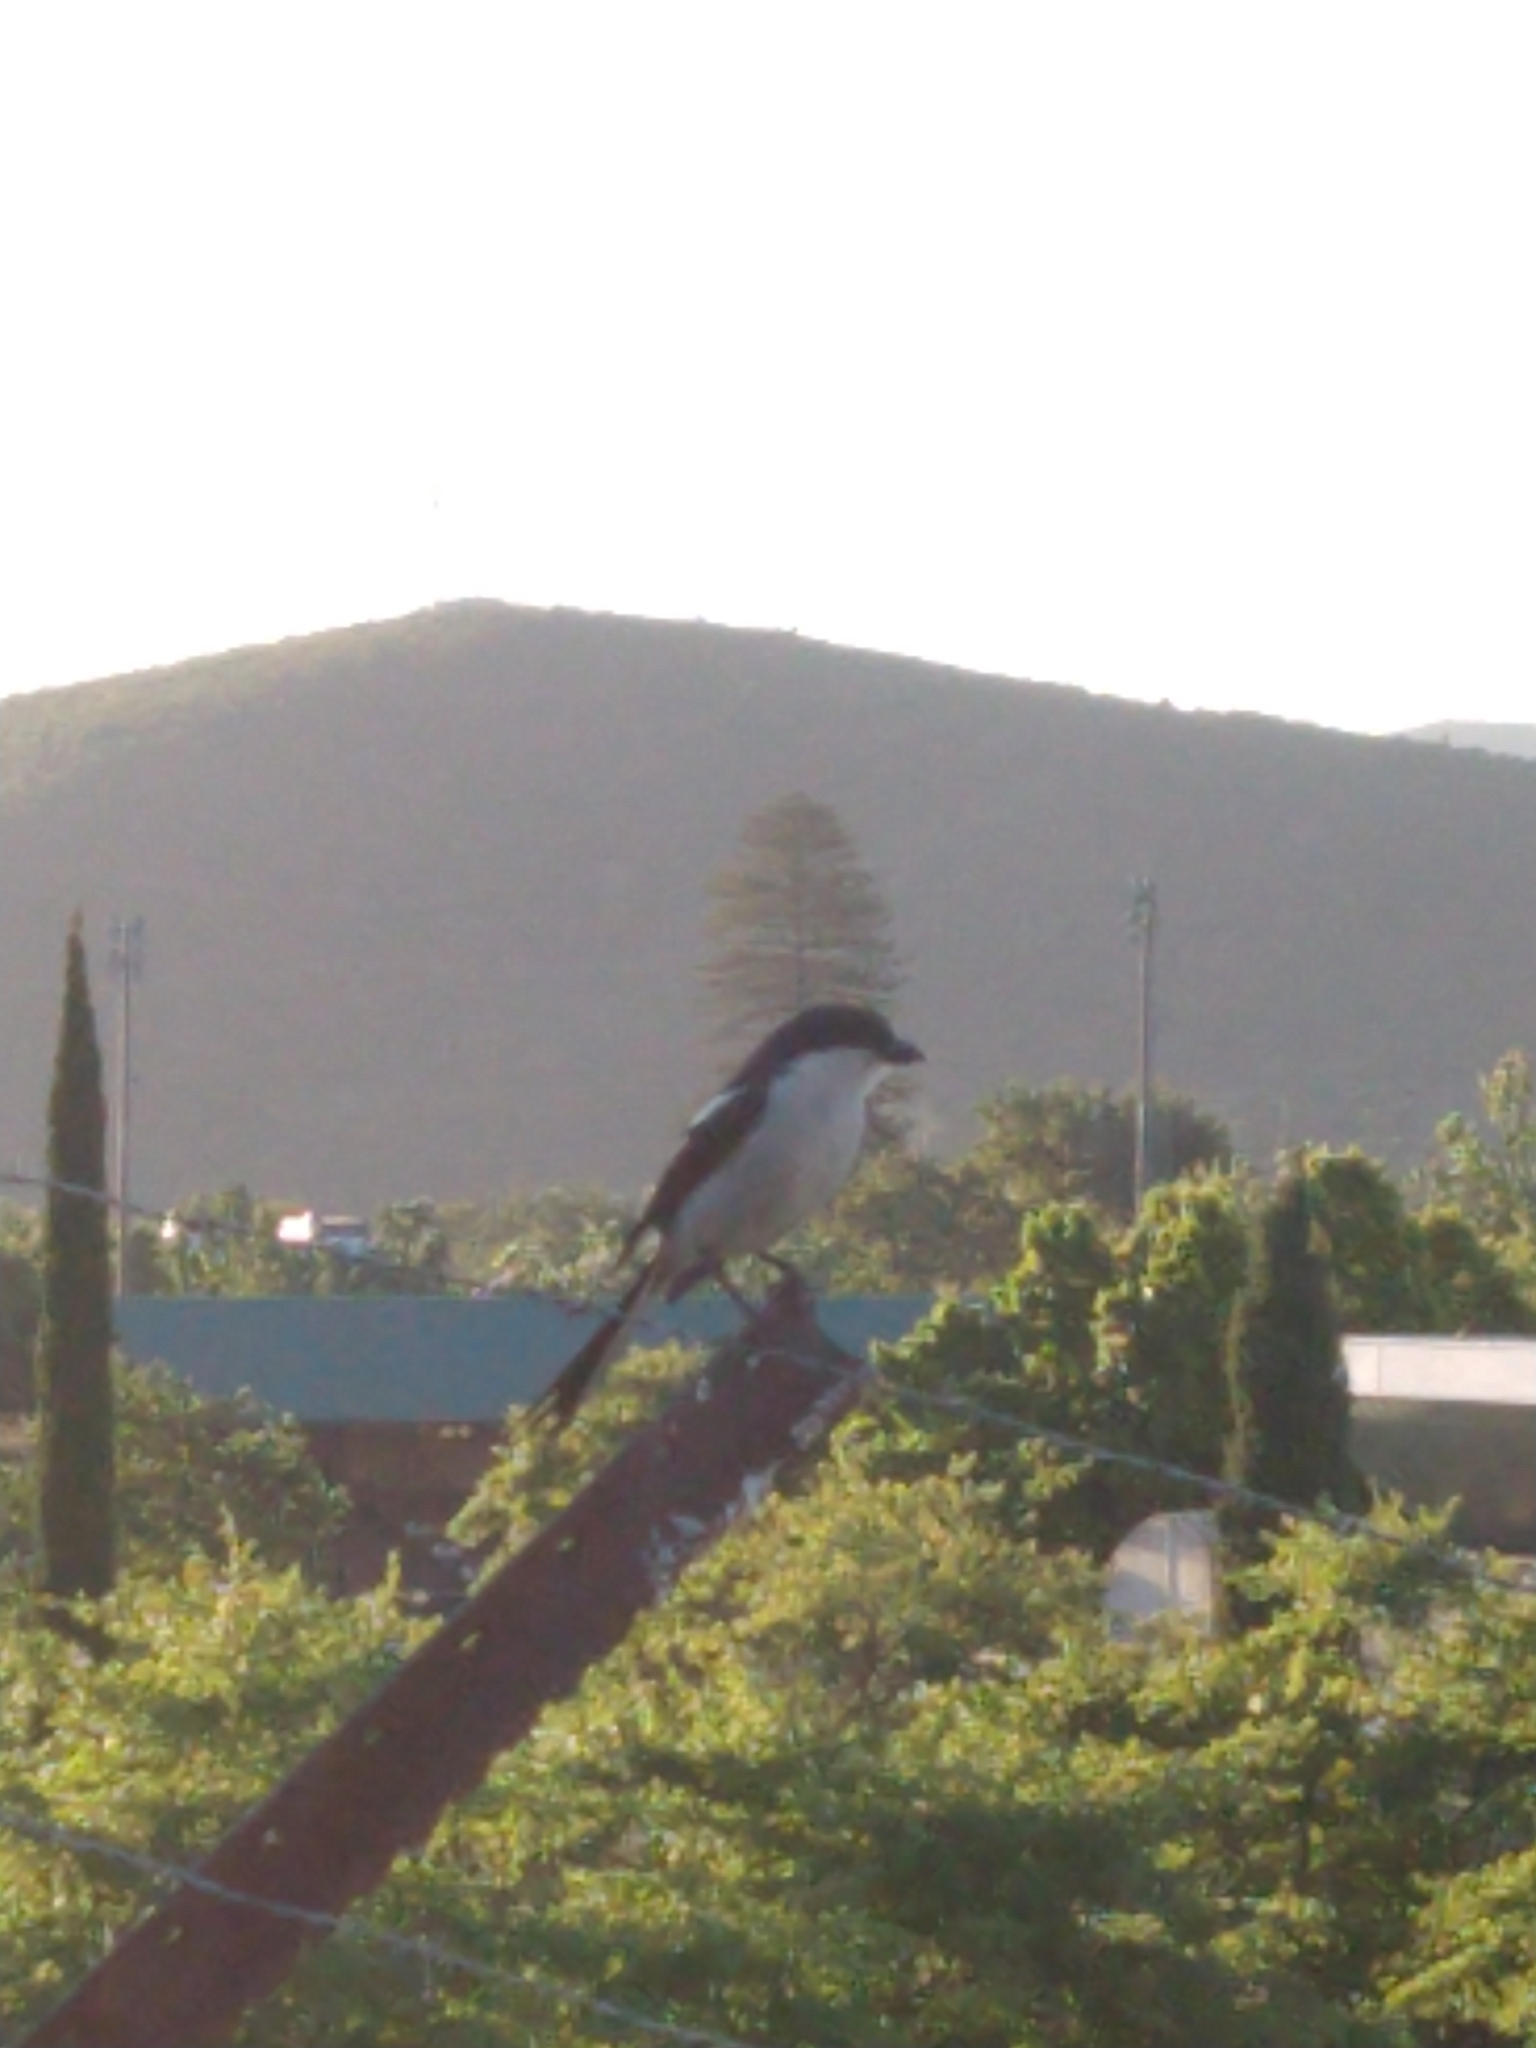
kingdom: Animalia
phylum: Chordata
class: Aves
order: Passeriformes
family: Laniidae
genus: Lanius
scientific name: Lanius collaris
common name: Southern fiscal
